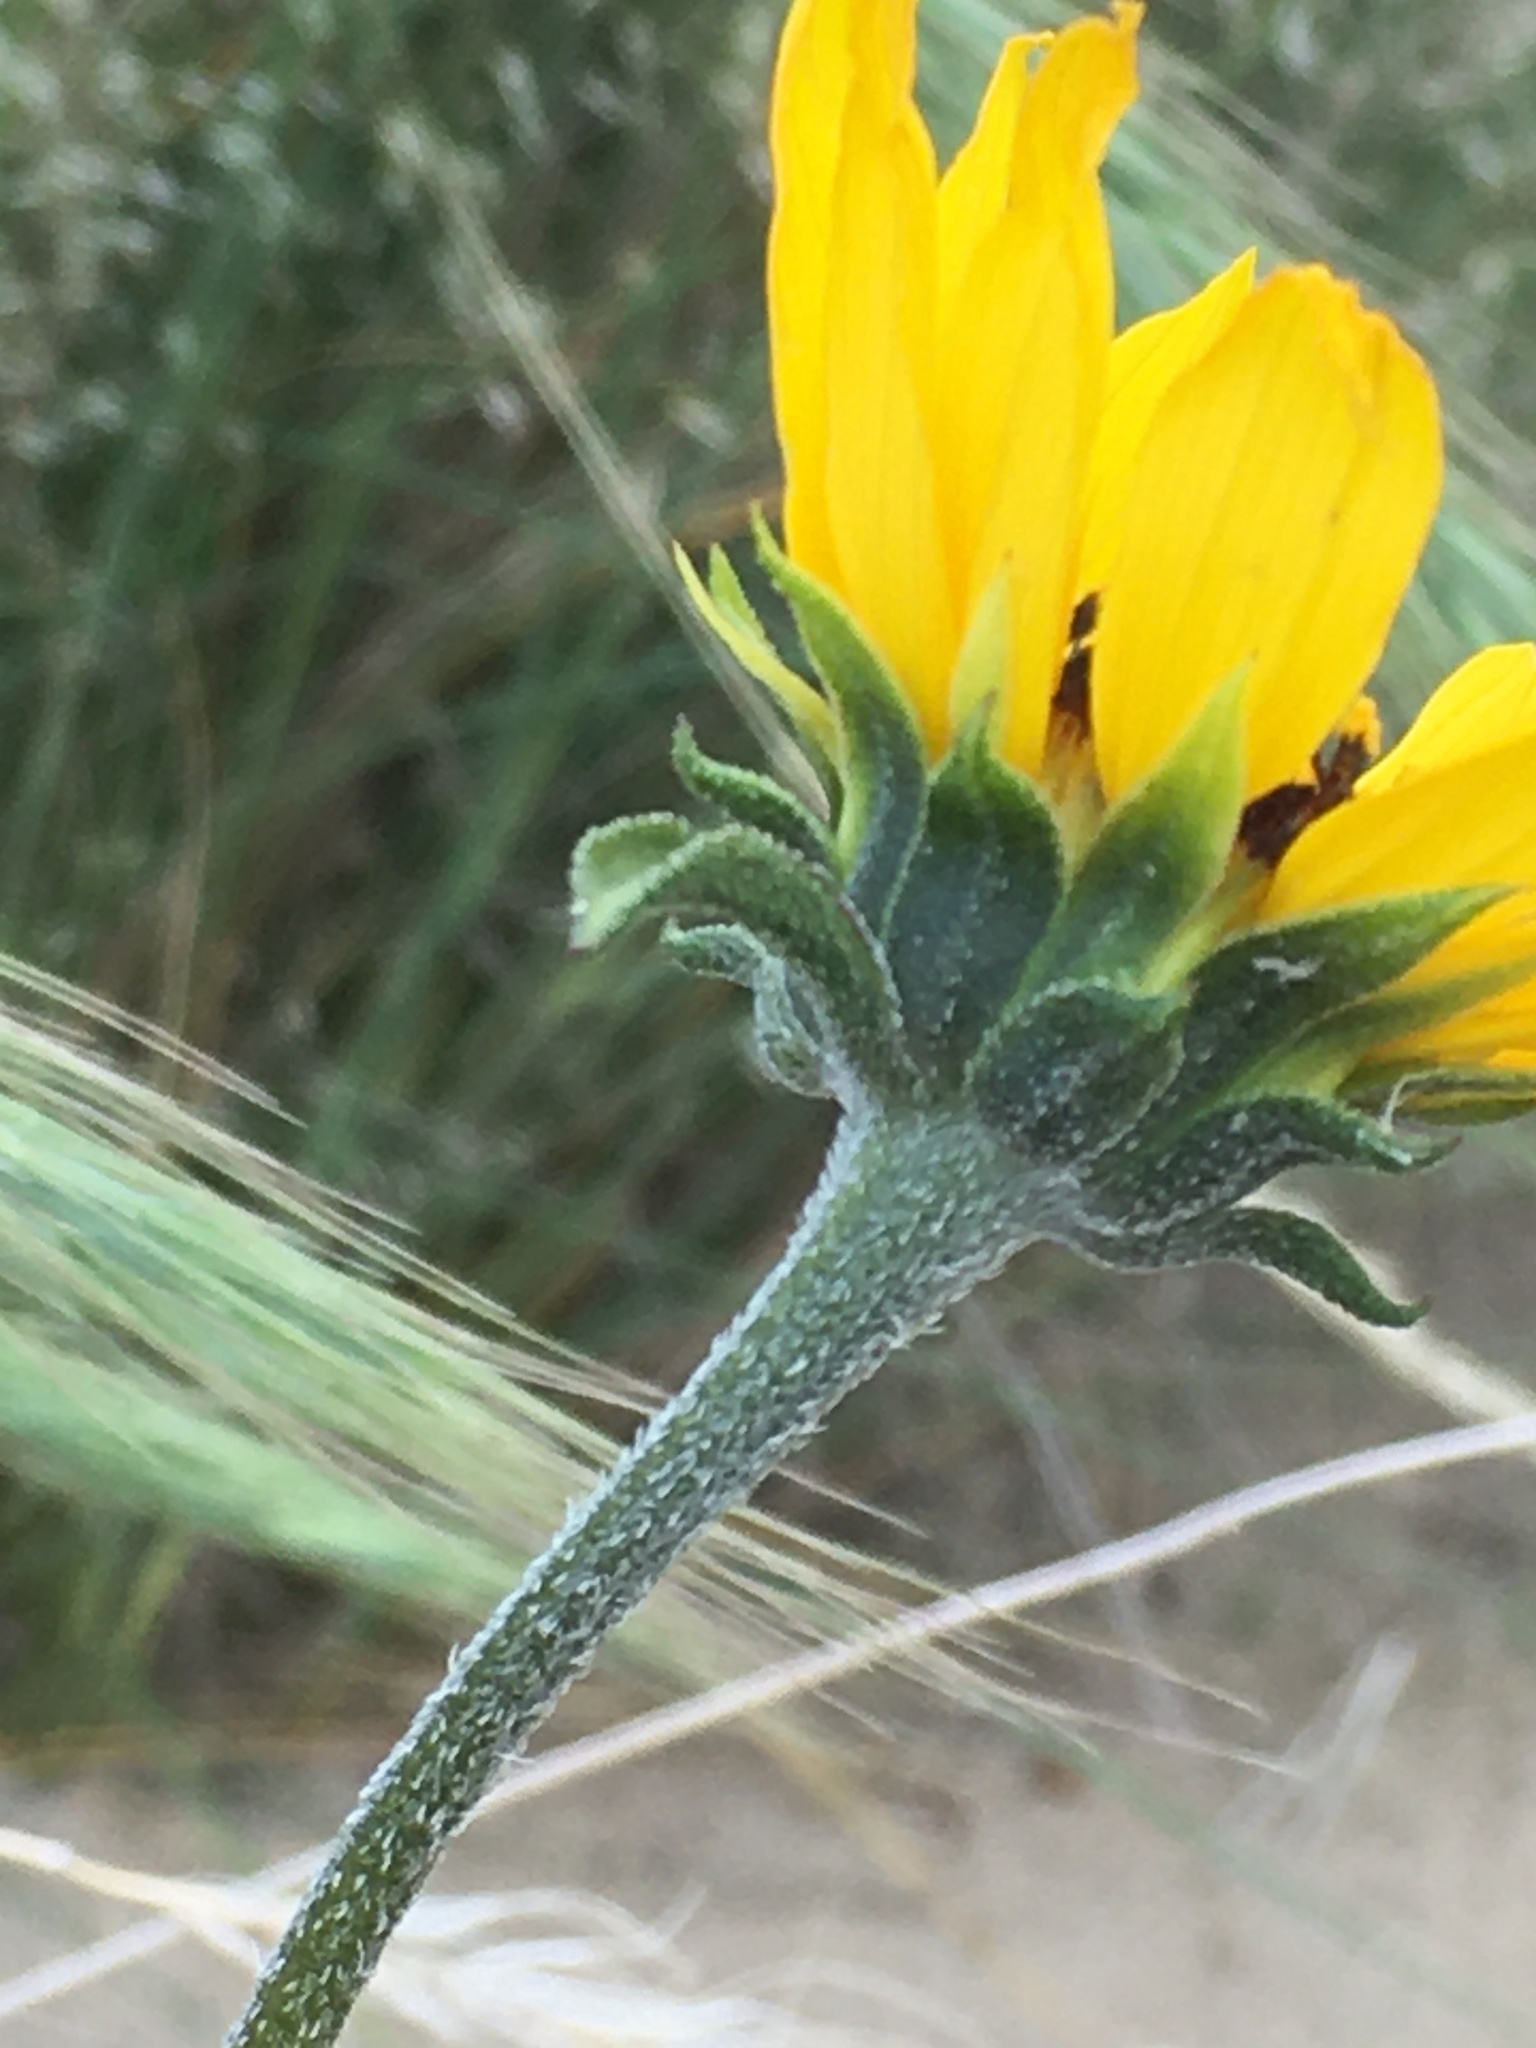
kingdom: Plantae
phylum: Tracheophyta
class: Magnoliopsida
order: Asterales
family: Asteraceae
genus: Helianthus
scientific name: Helianthus petiolaris
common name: Lesser sunflower
